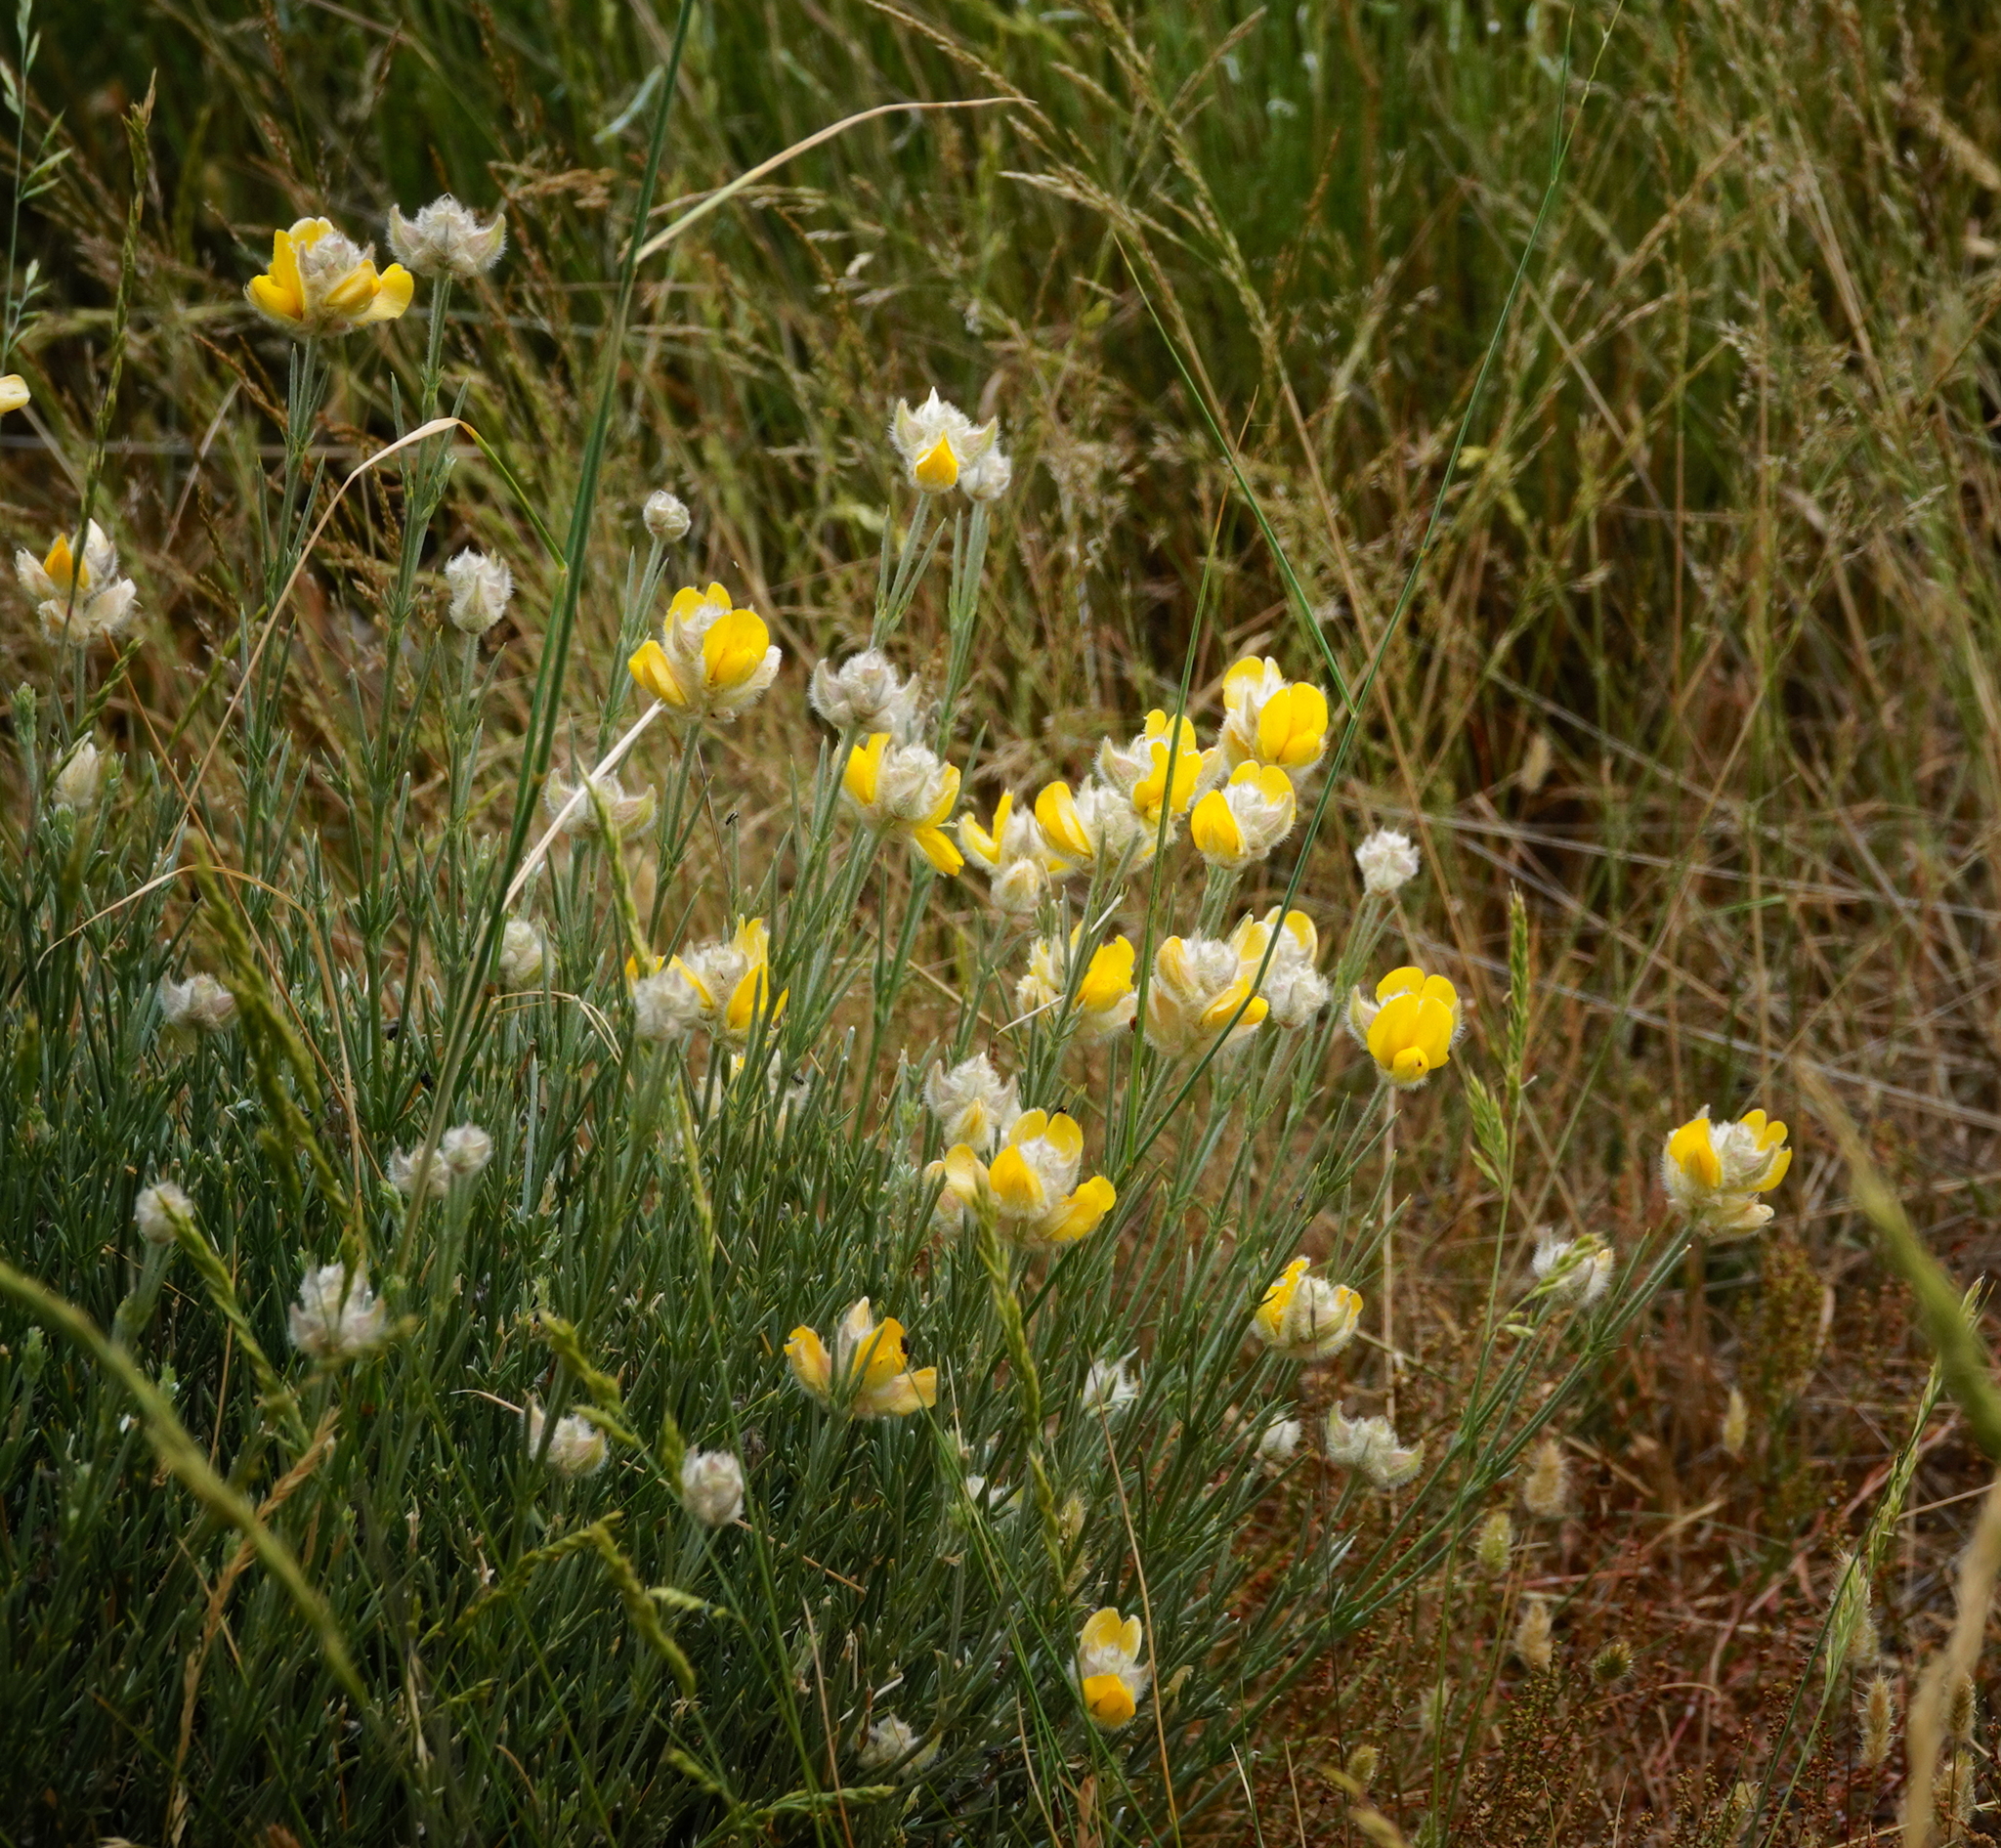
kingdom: Plantae
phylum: Tracheophyta
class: Magnoliopsida
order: Fabales
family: Fabaceae
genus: Echinospartum
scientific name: Echinospartum ibericum
